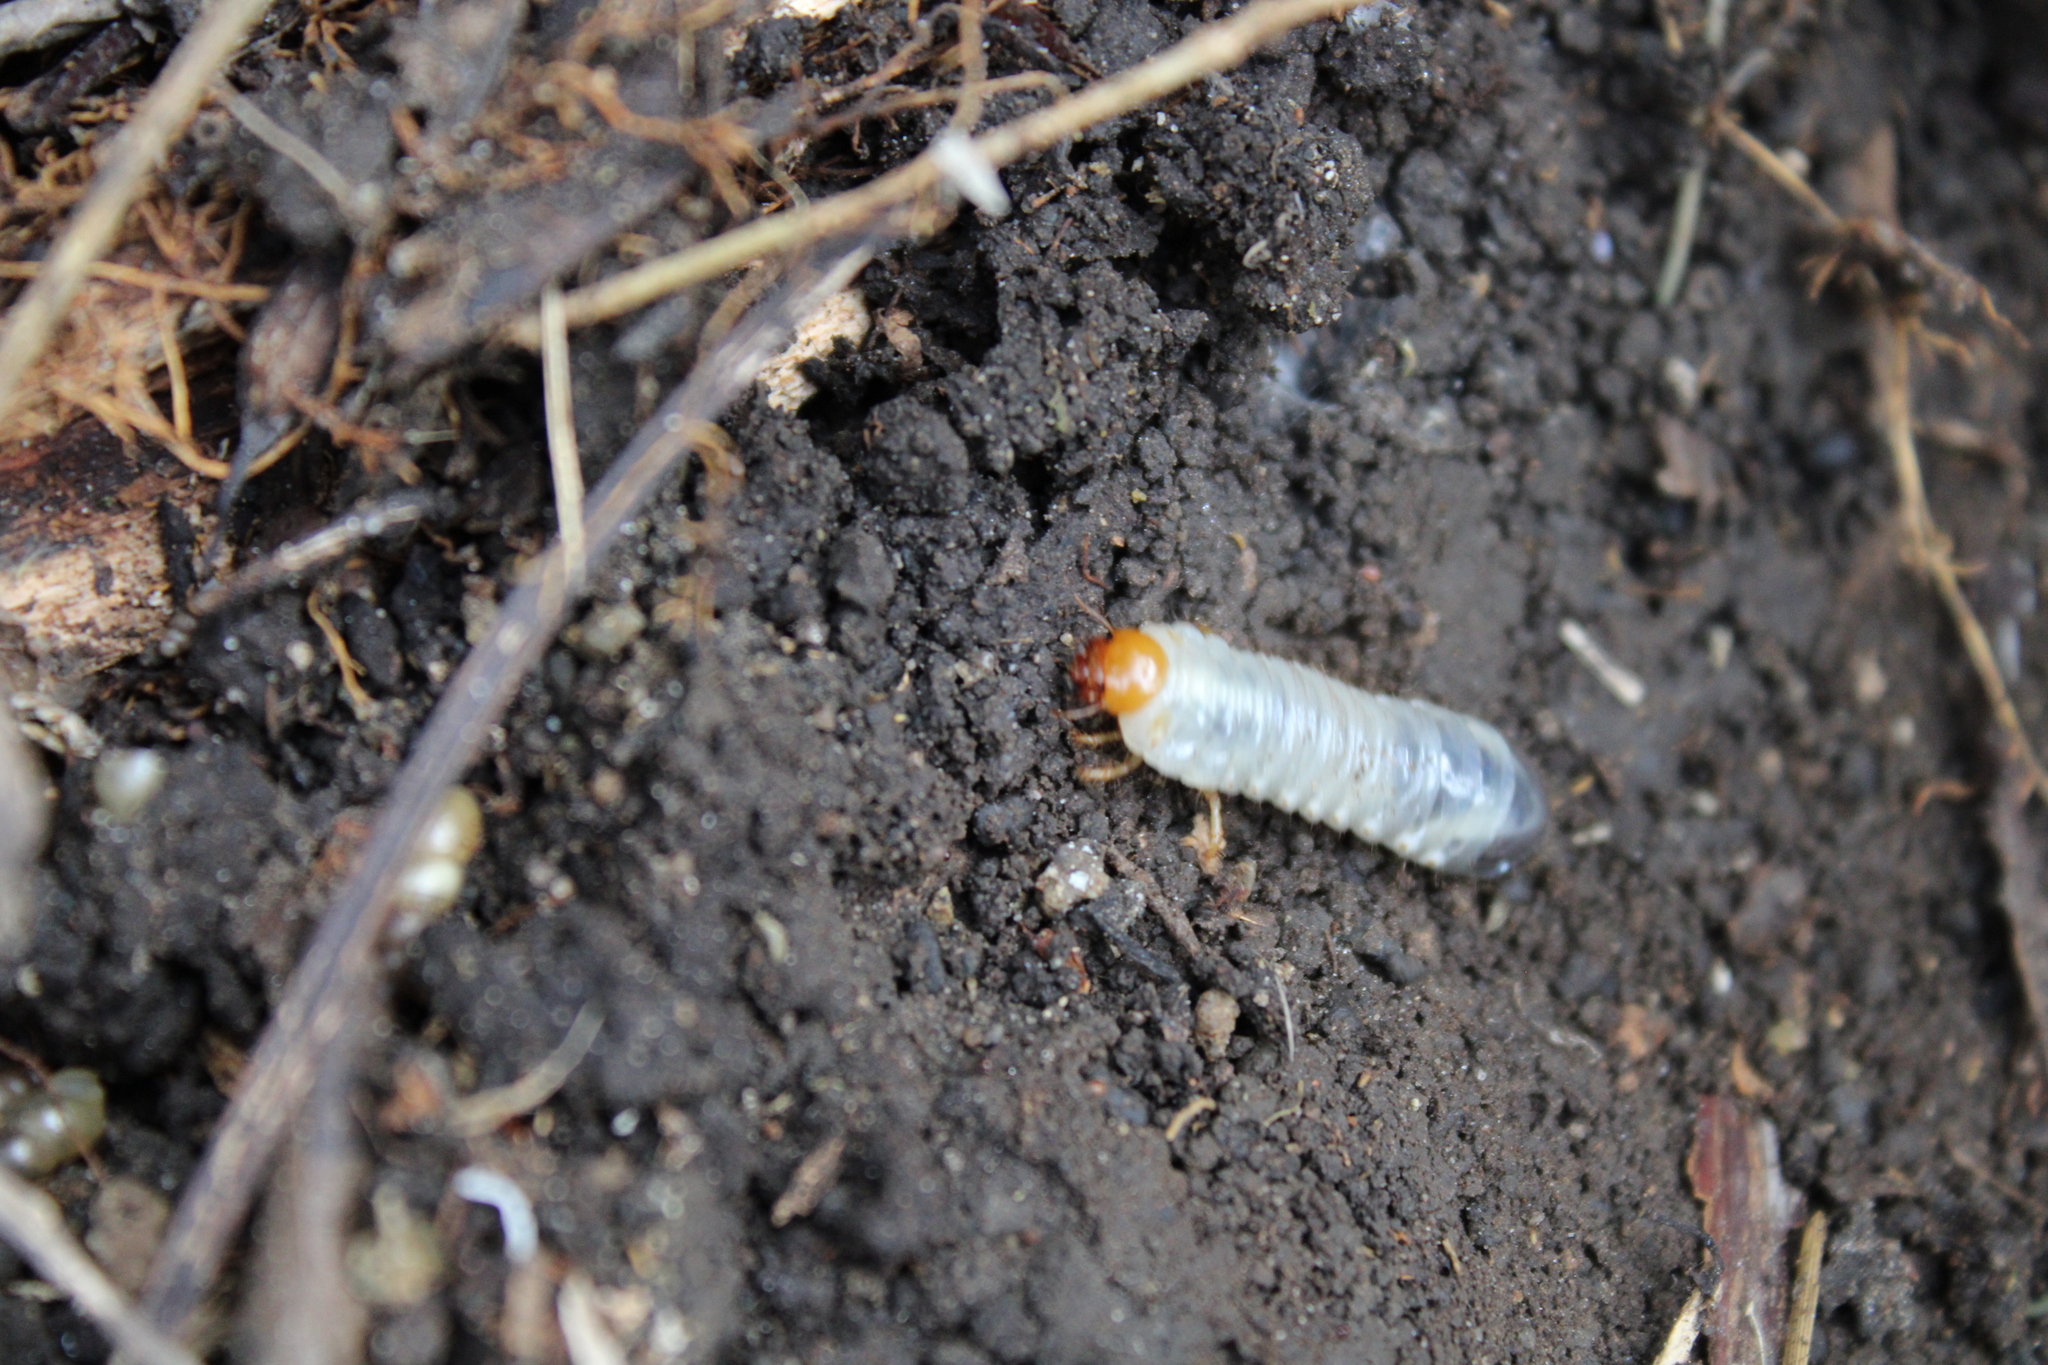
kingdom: Animalia
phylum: Arthropoda
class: Insecta
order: Coleoptera
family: Scarabaeidae
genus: Phyllophaga
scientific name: Phyllophaga plaei
